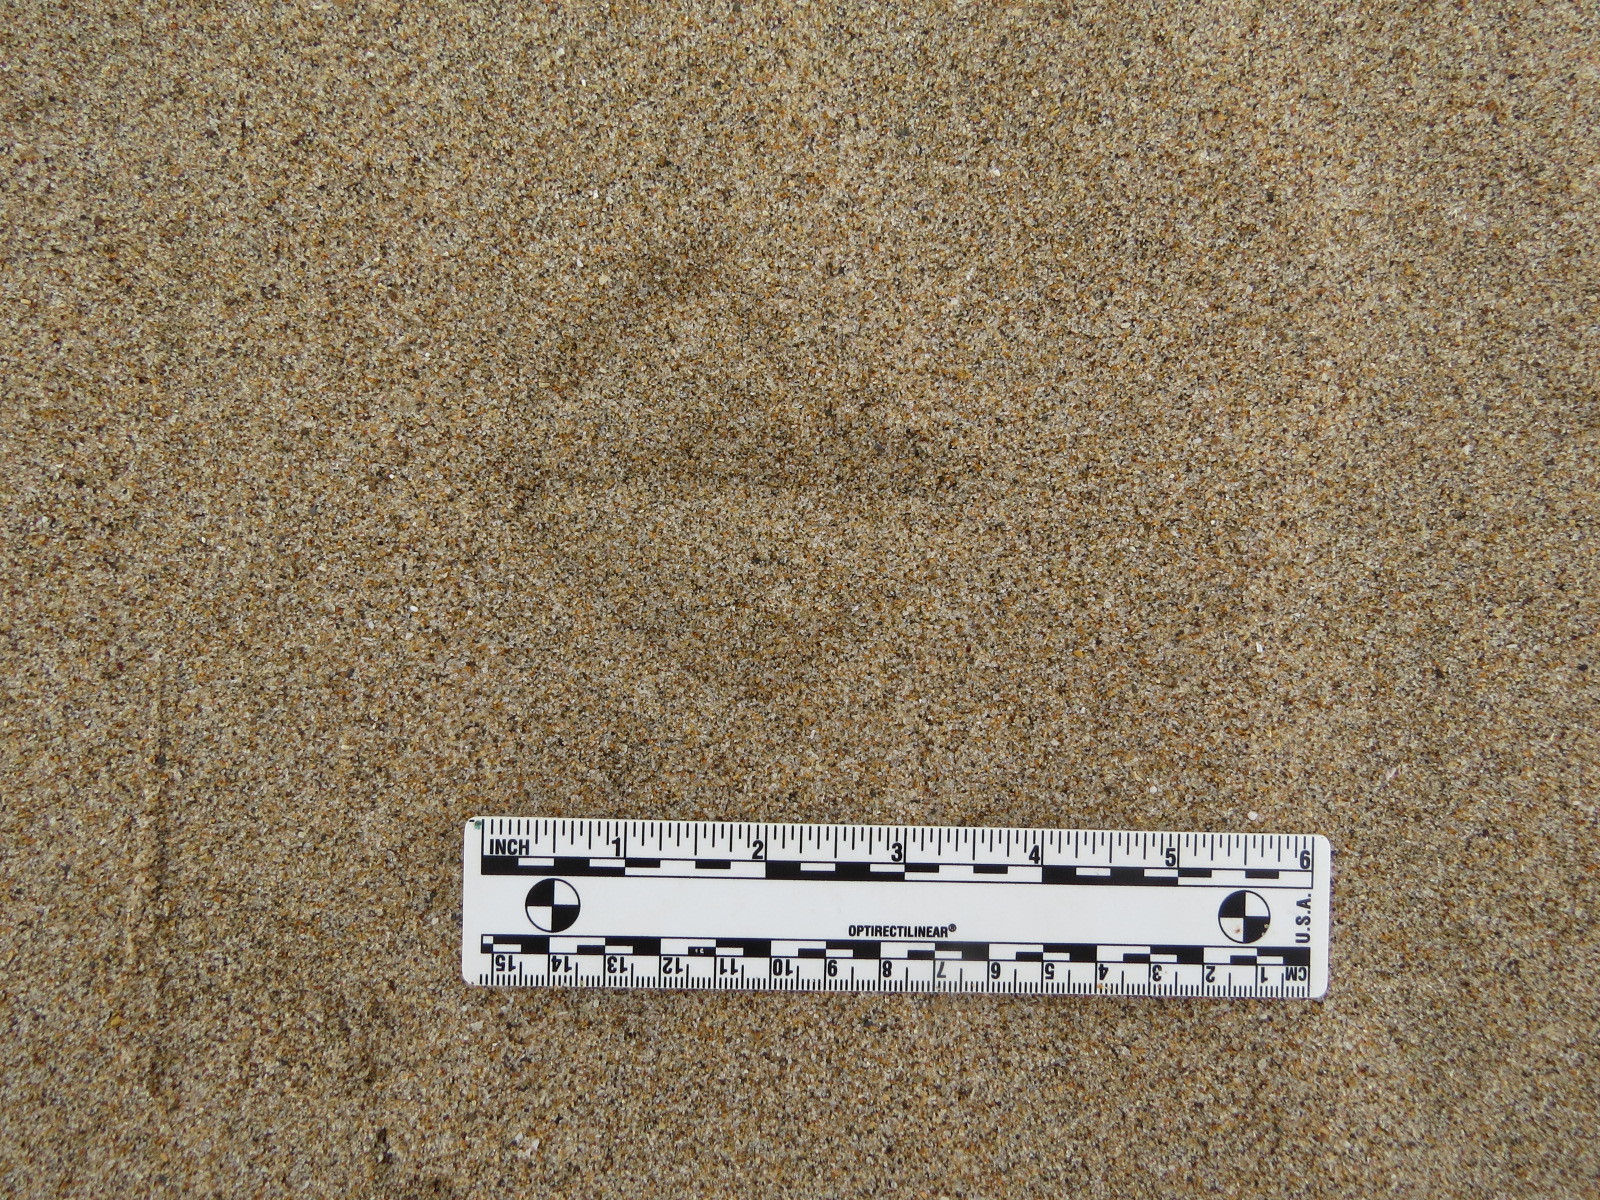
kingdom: Animalia
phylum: Chordata
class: Aves
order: Charadriiformes
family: Laridae
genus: Larus
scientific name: Larus occidentalis
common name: Western gull
